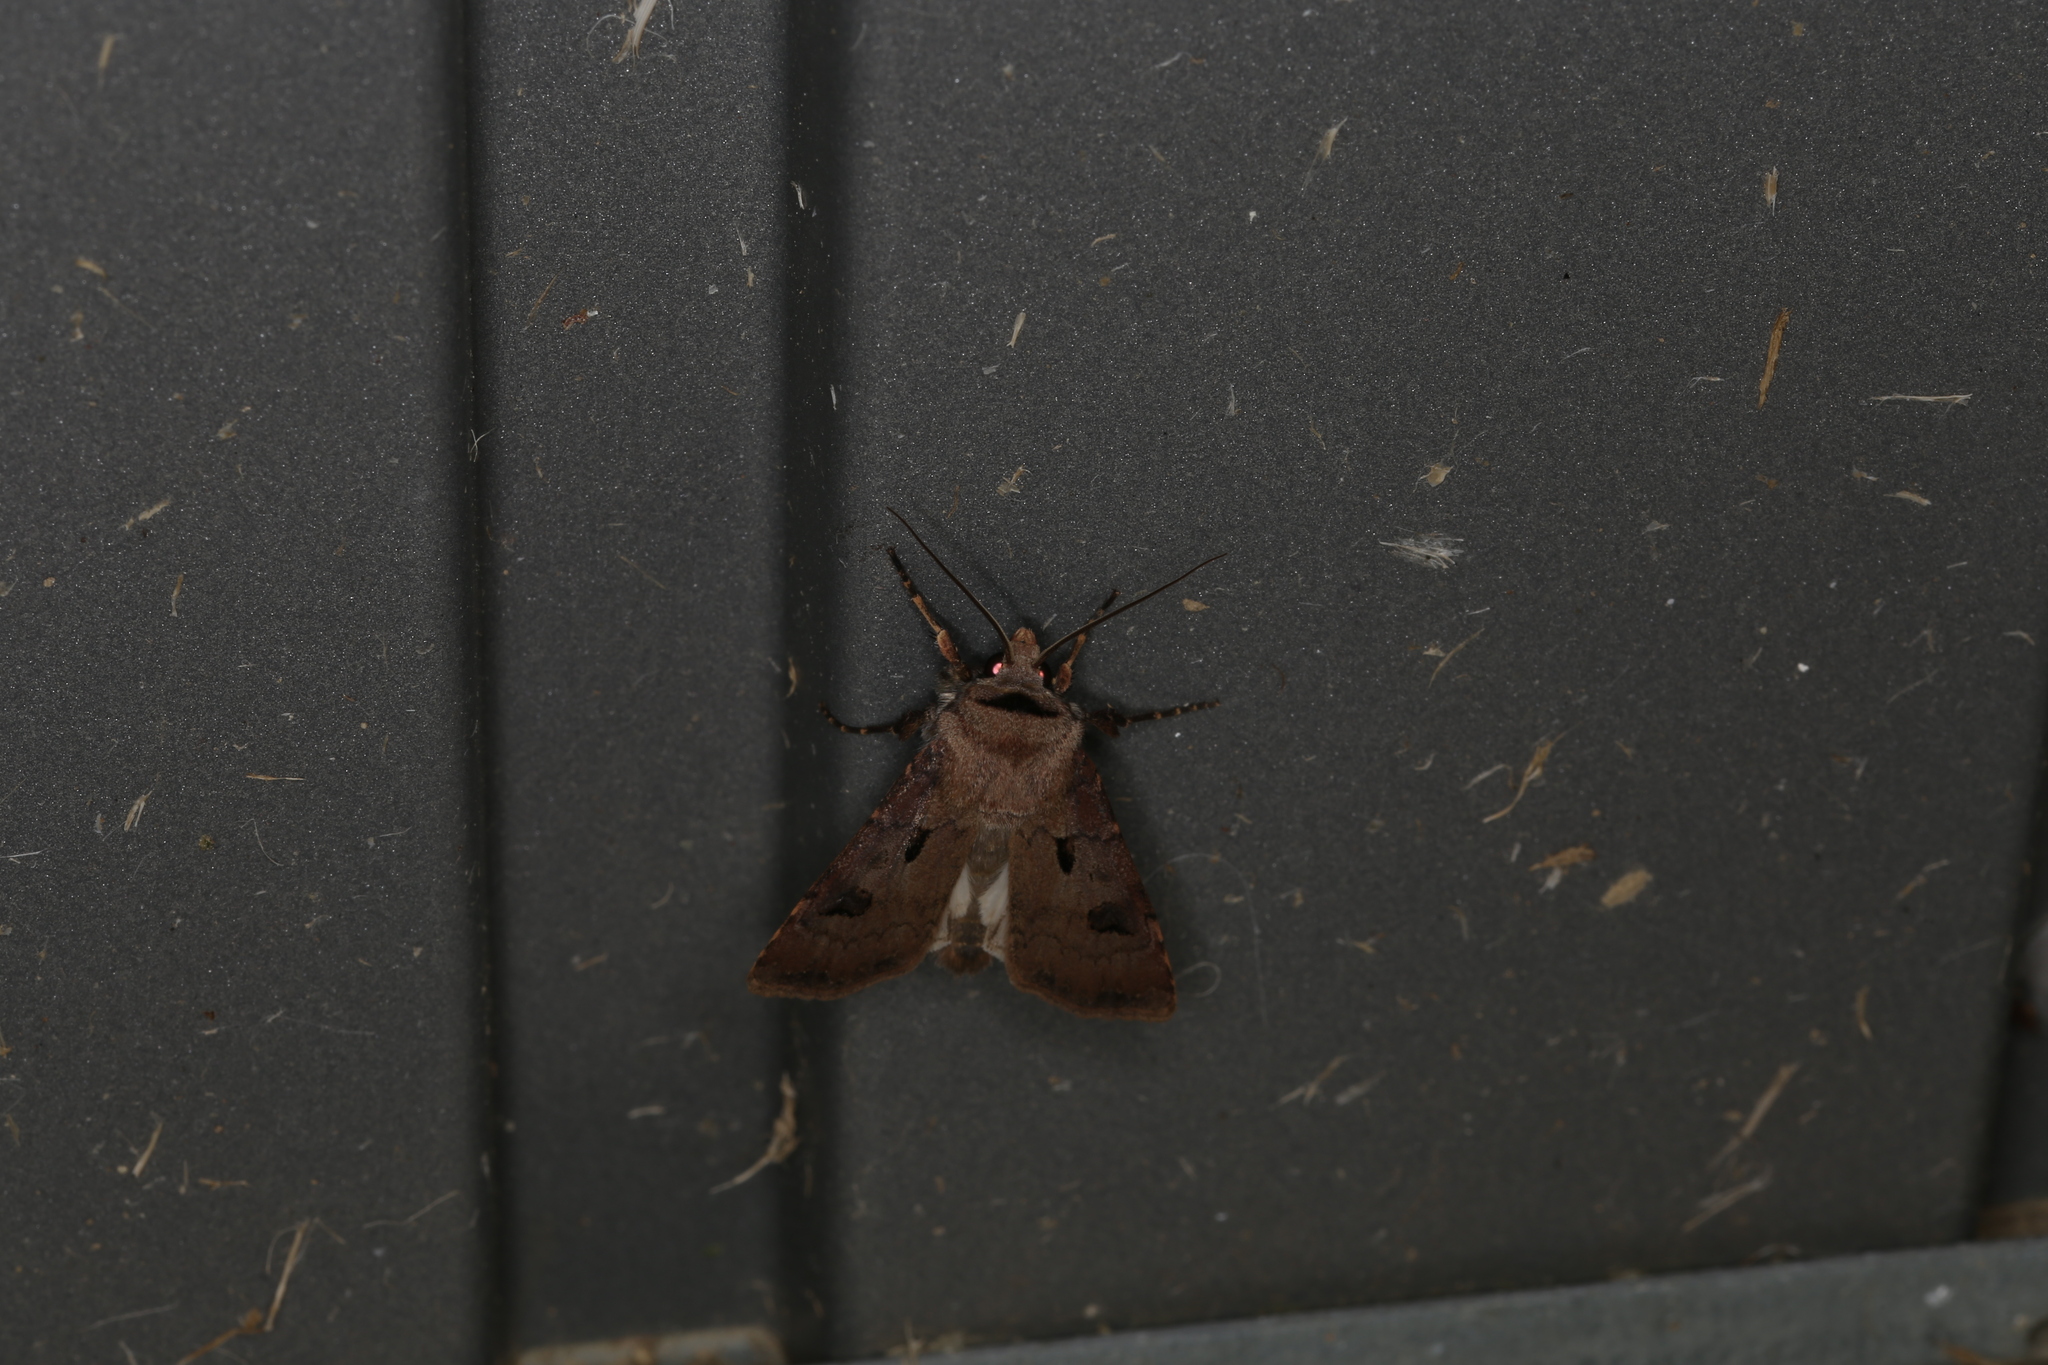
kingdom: Animalia
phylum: Arthropoda
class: Insecta
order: Lepidoptera
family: Noctuidae
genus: Agrotis
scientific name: Agrotis exclamationis
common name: Heart and dart
